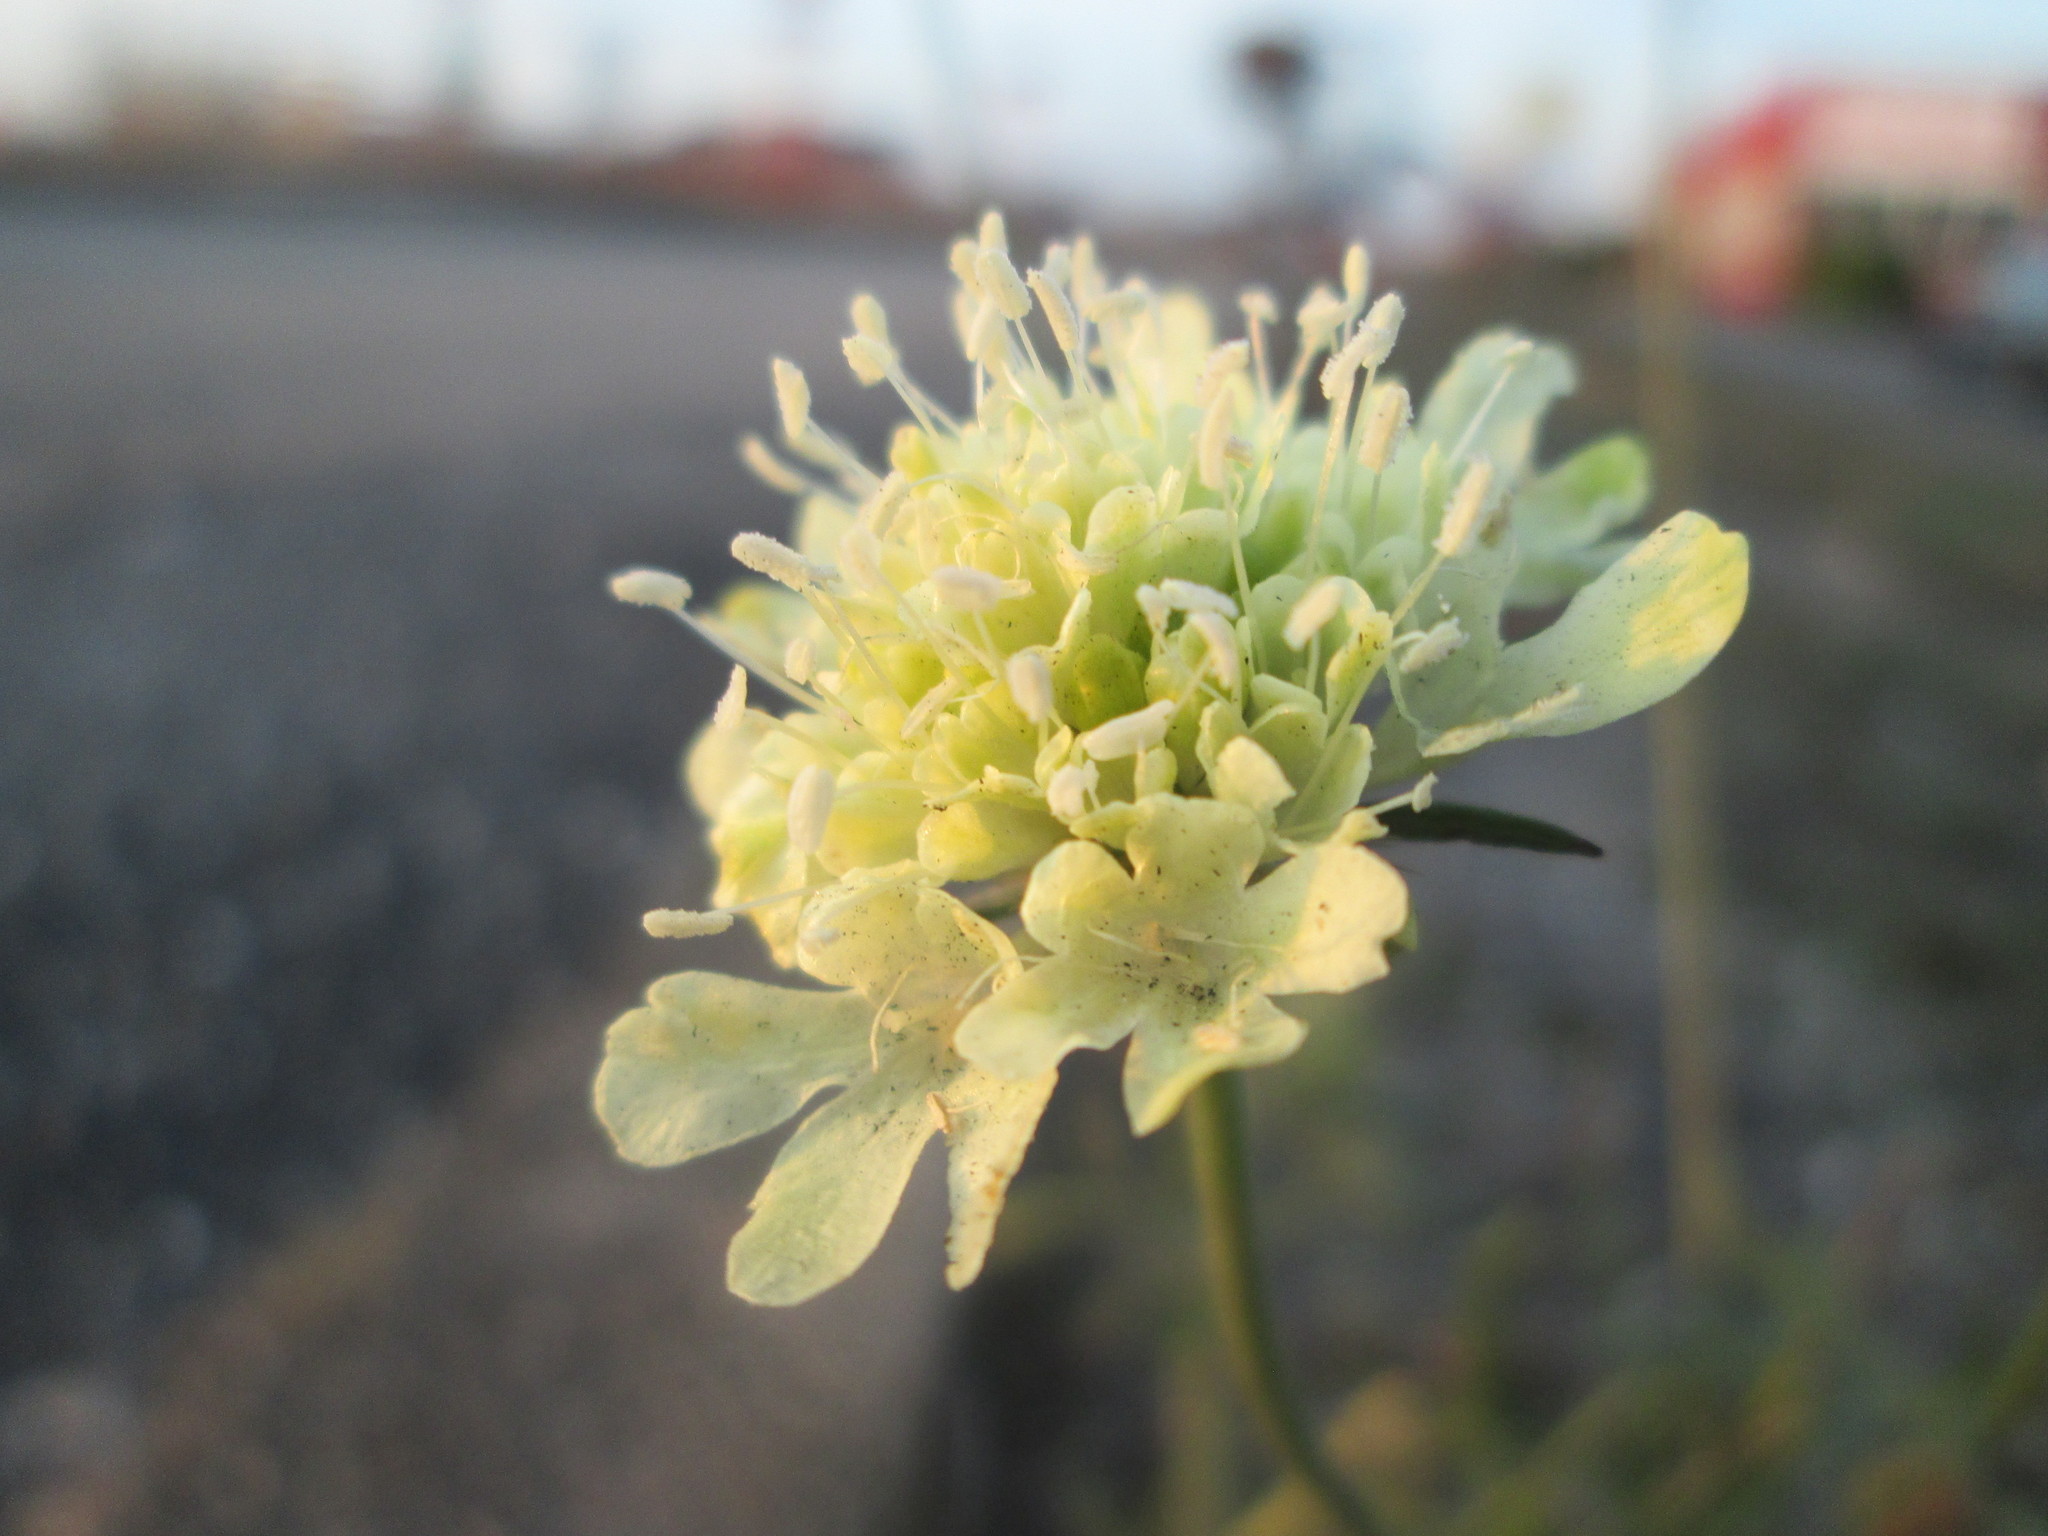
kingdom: Plantae
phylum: Tracheophyta
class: Magnoliopsida
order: Dipsacales
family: Caprifoliaceae
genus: Scabiosa
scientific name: Scabiosa ochroleuca
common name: Cream pincushions
